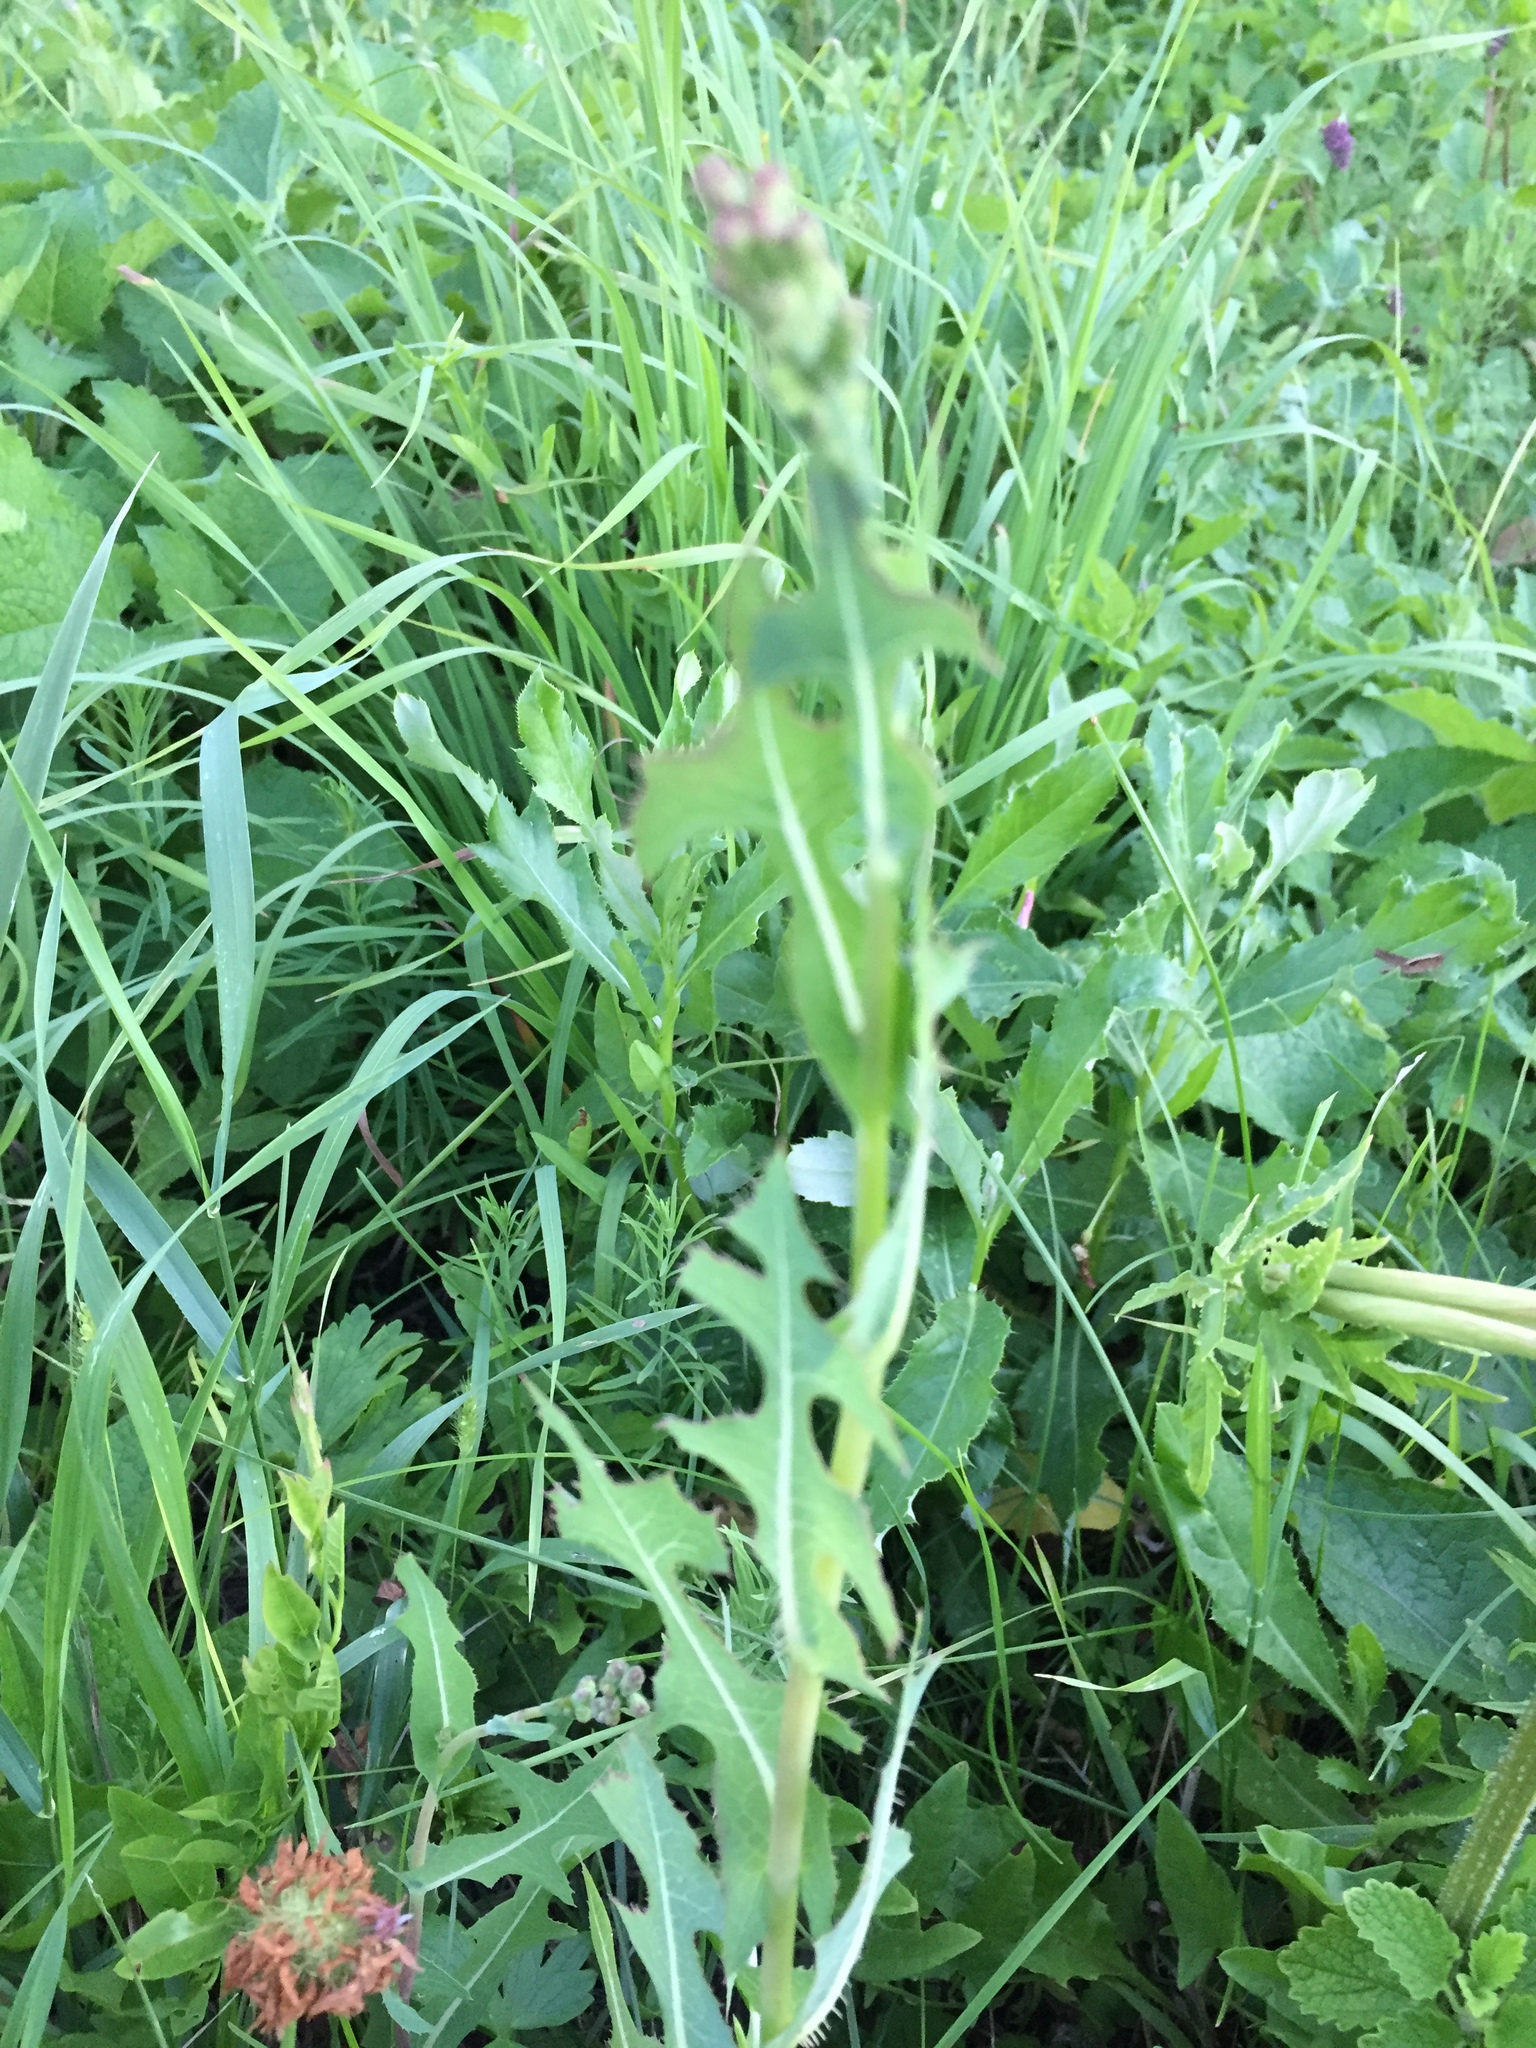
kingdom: Plantae
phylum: Tracheophyta
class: Magnoliopsida
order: Asterales
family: Asteraceae
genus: Lactuca
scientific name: Lactuca serriola
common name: Prickly lettuce
